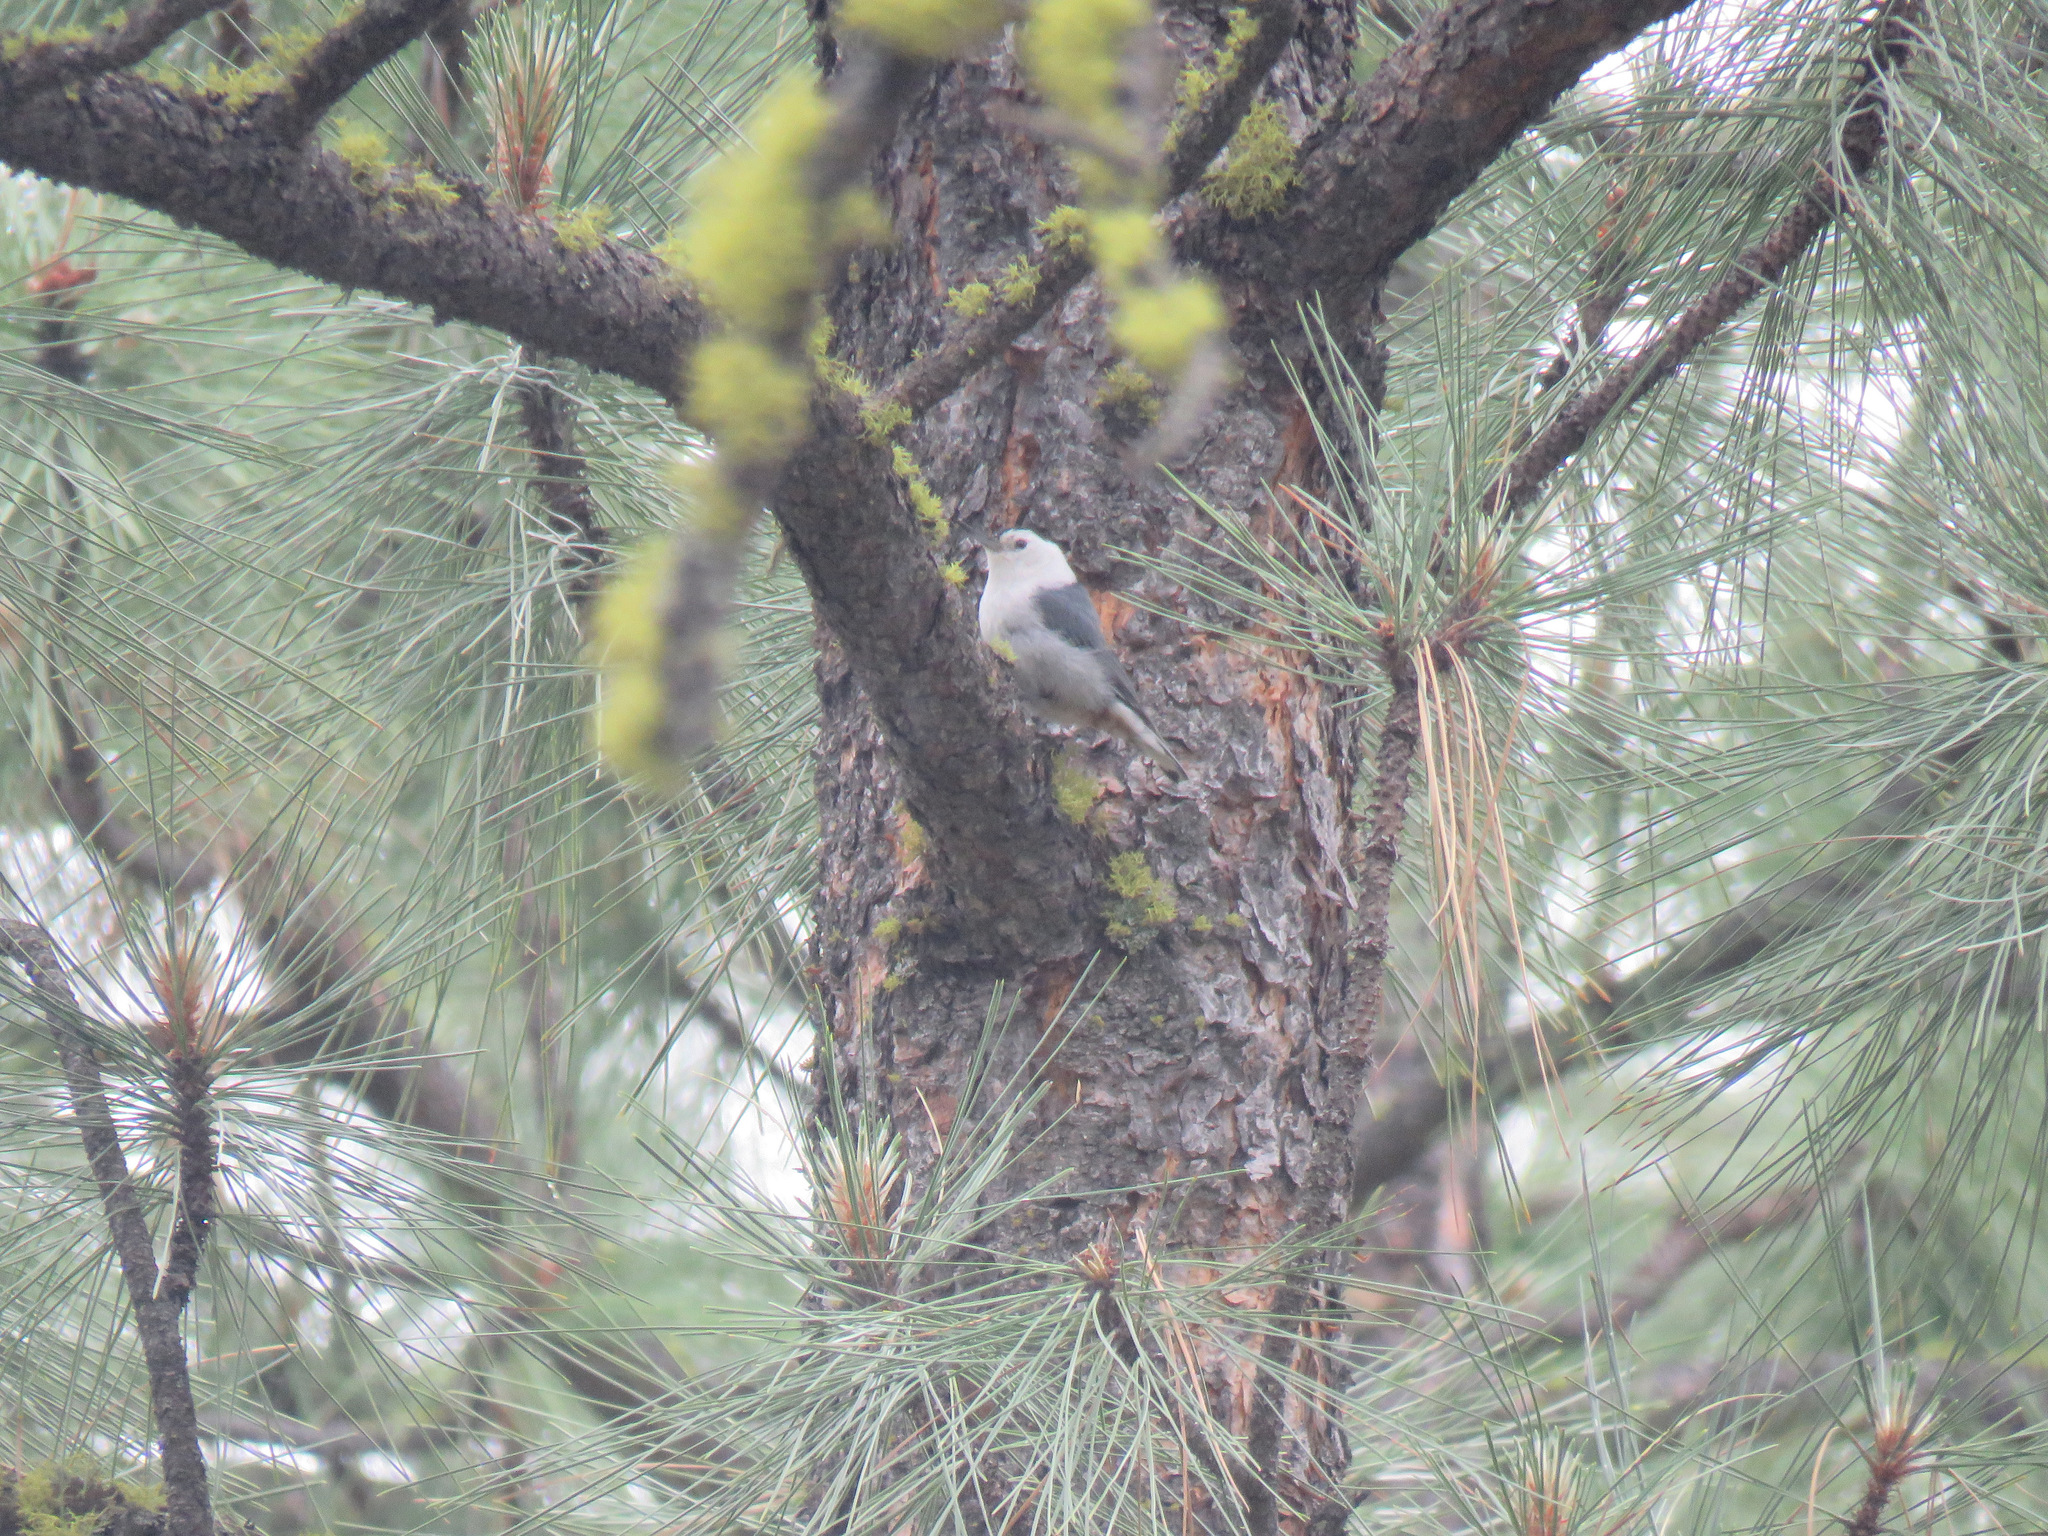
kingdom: Animalia
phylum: Chordata
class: Aves
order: Passeriformes
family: Sittidae
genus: Sitta
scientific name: Sitta carolinensis
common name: White-breasted nuthatch
